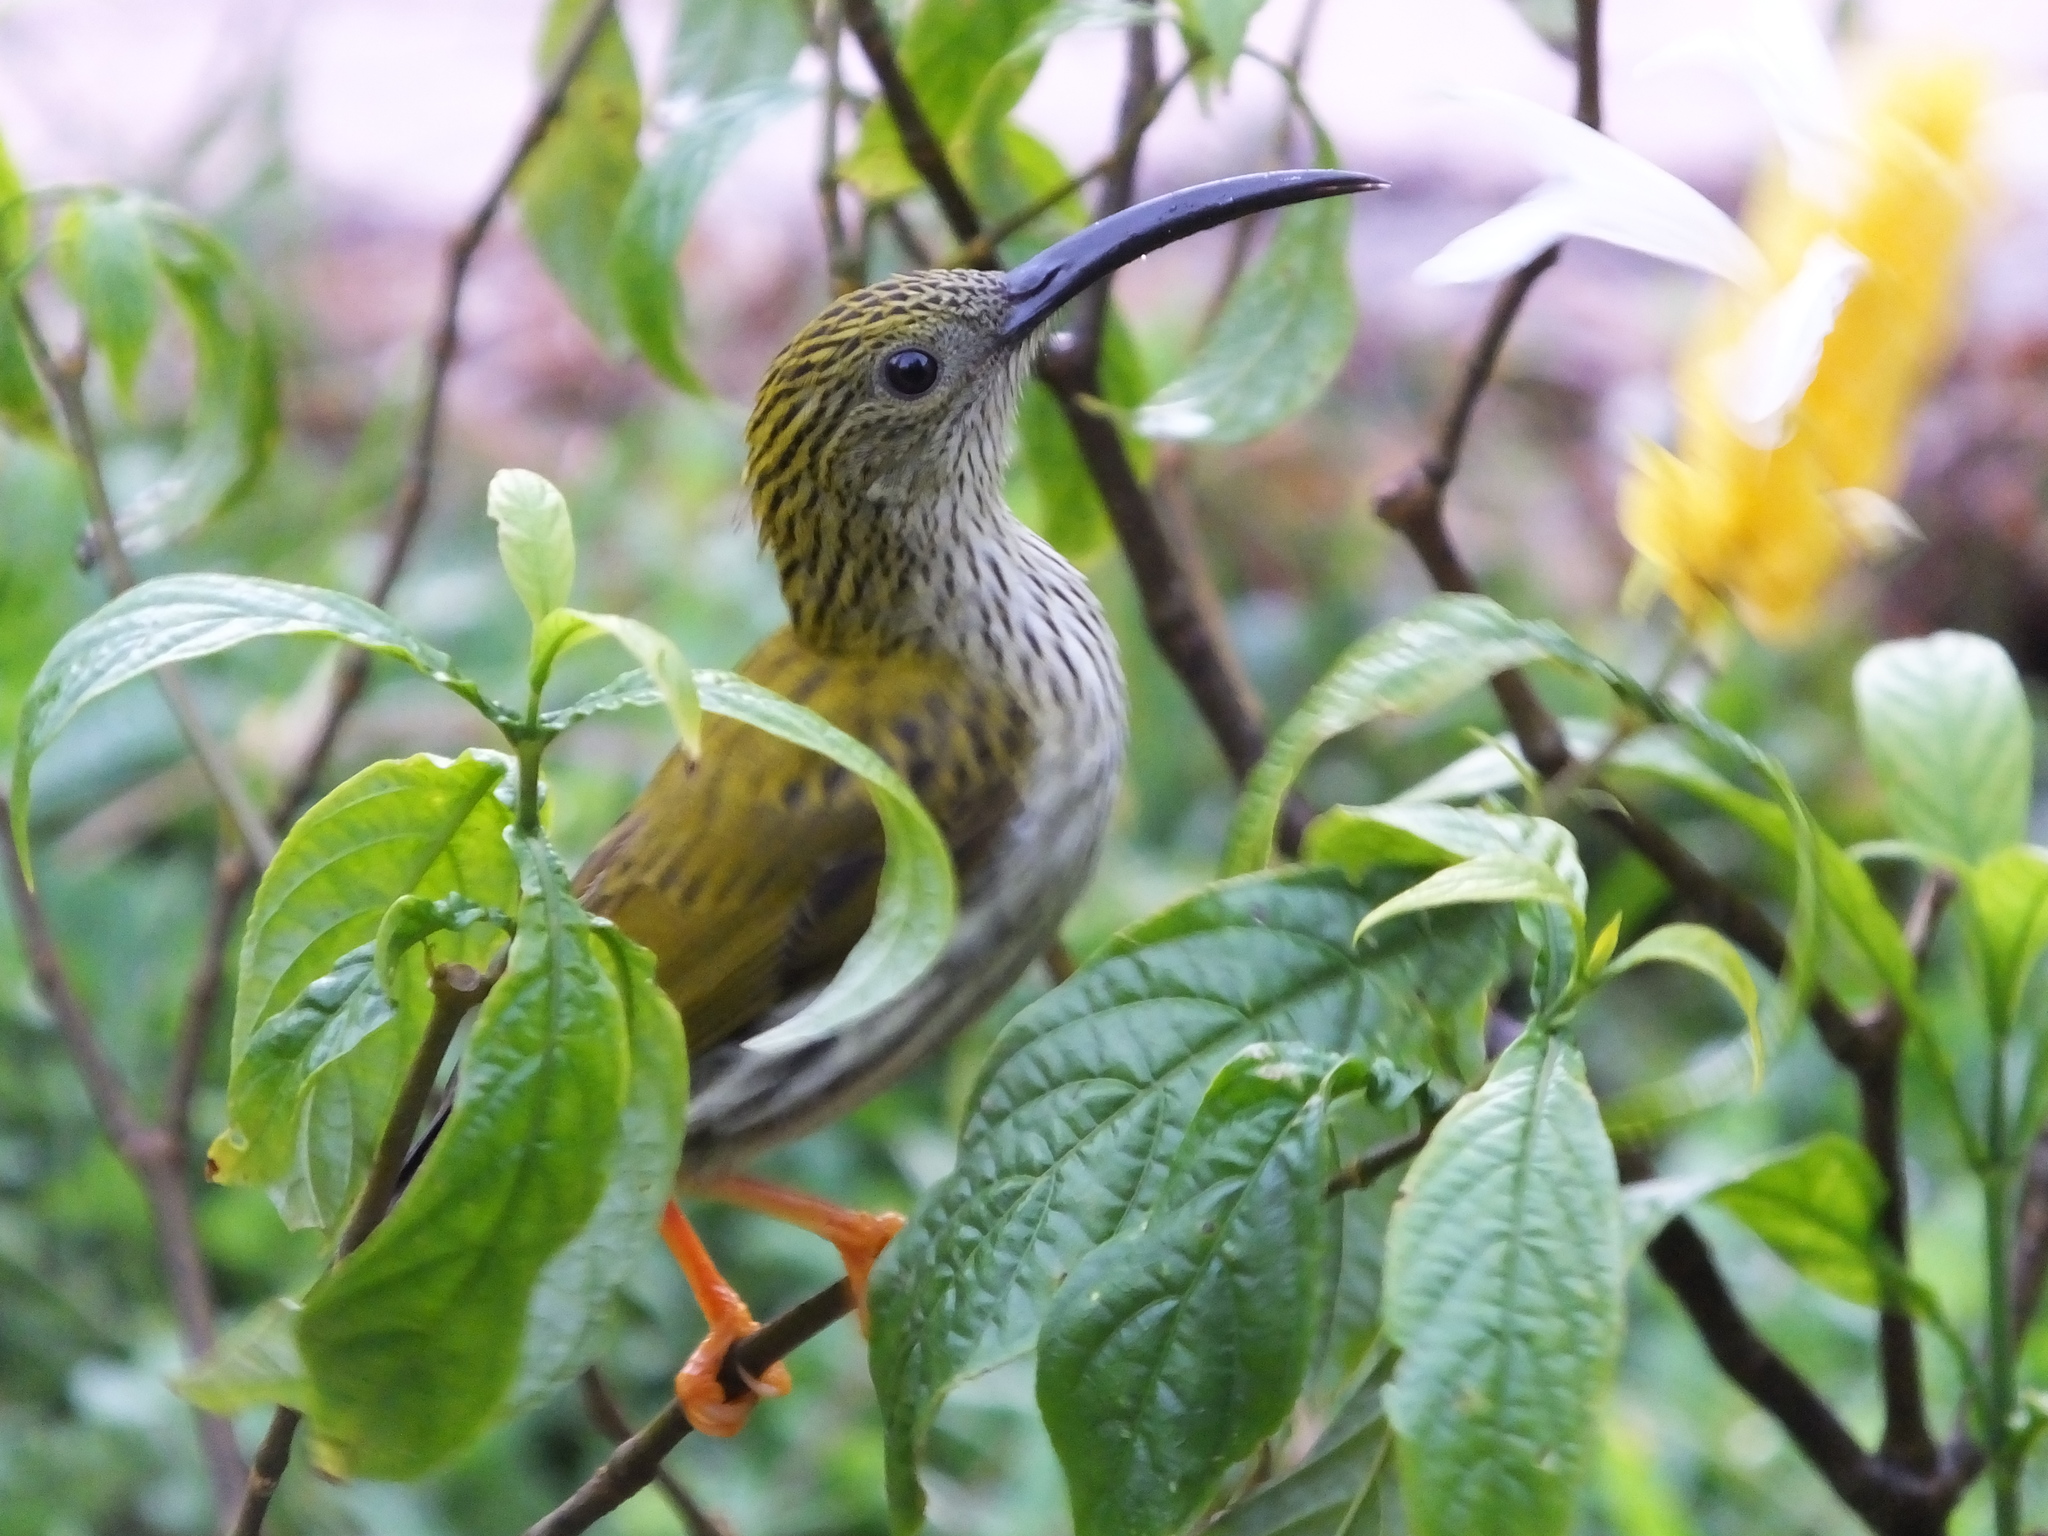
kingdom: Animalia
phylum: Chordata
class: Aves
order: Passeriformes
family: Nectariniidae
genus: Arachnothera
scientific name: Arachnothera magna
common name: Streaked spiderhunter
